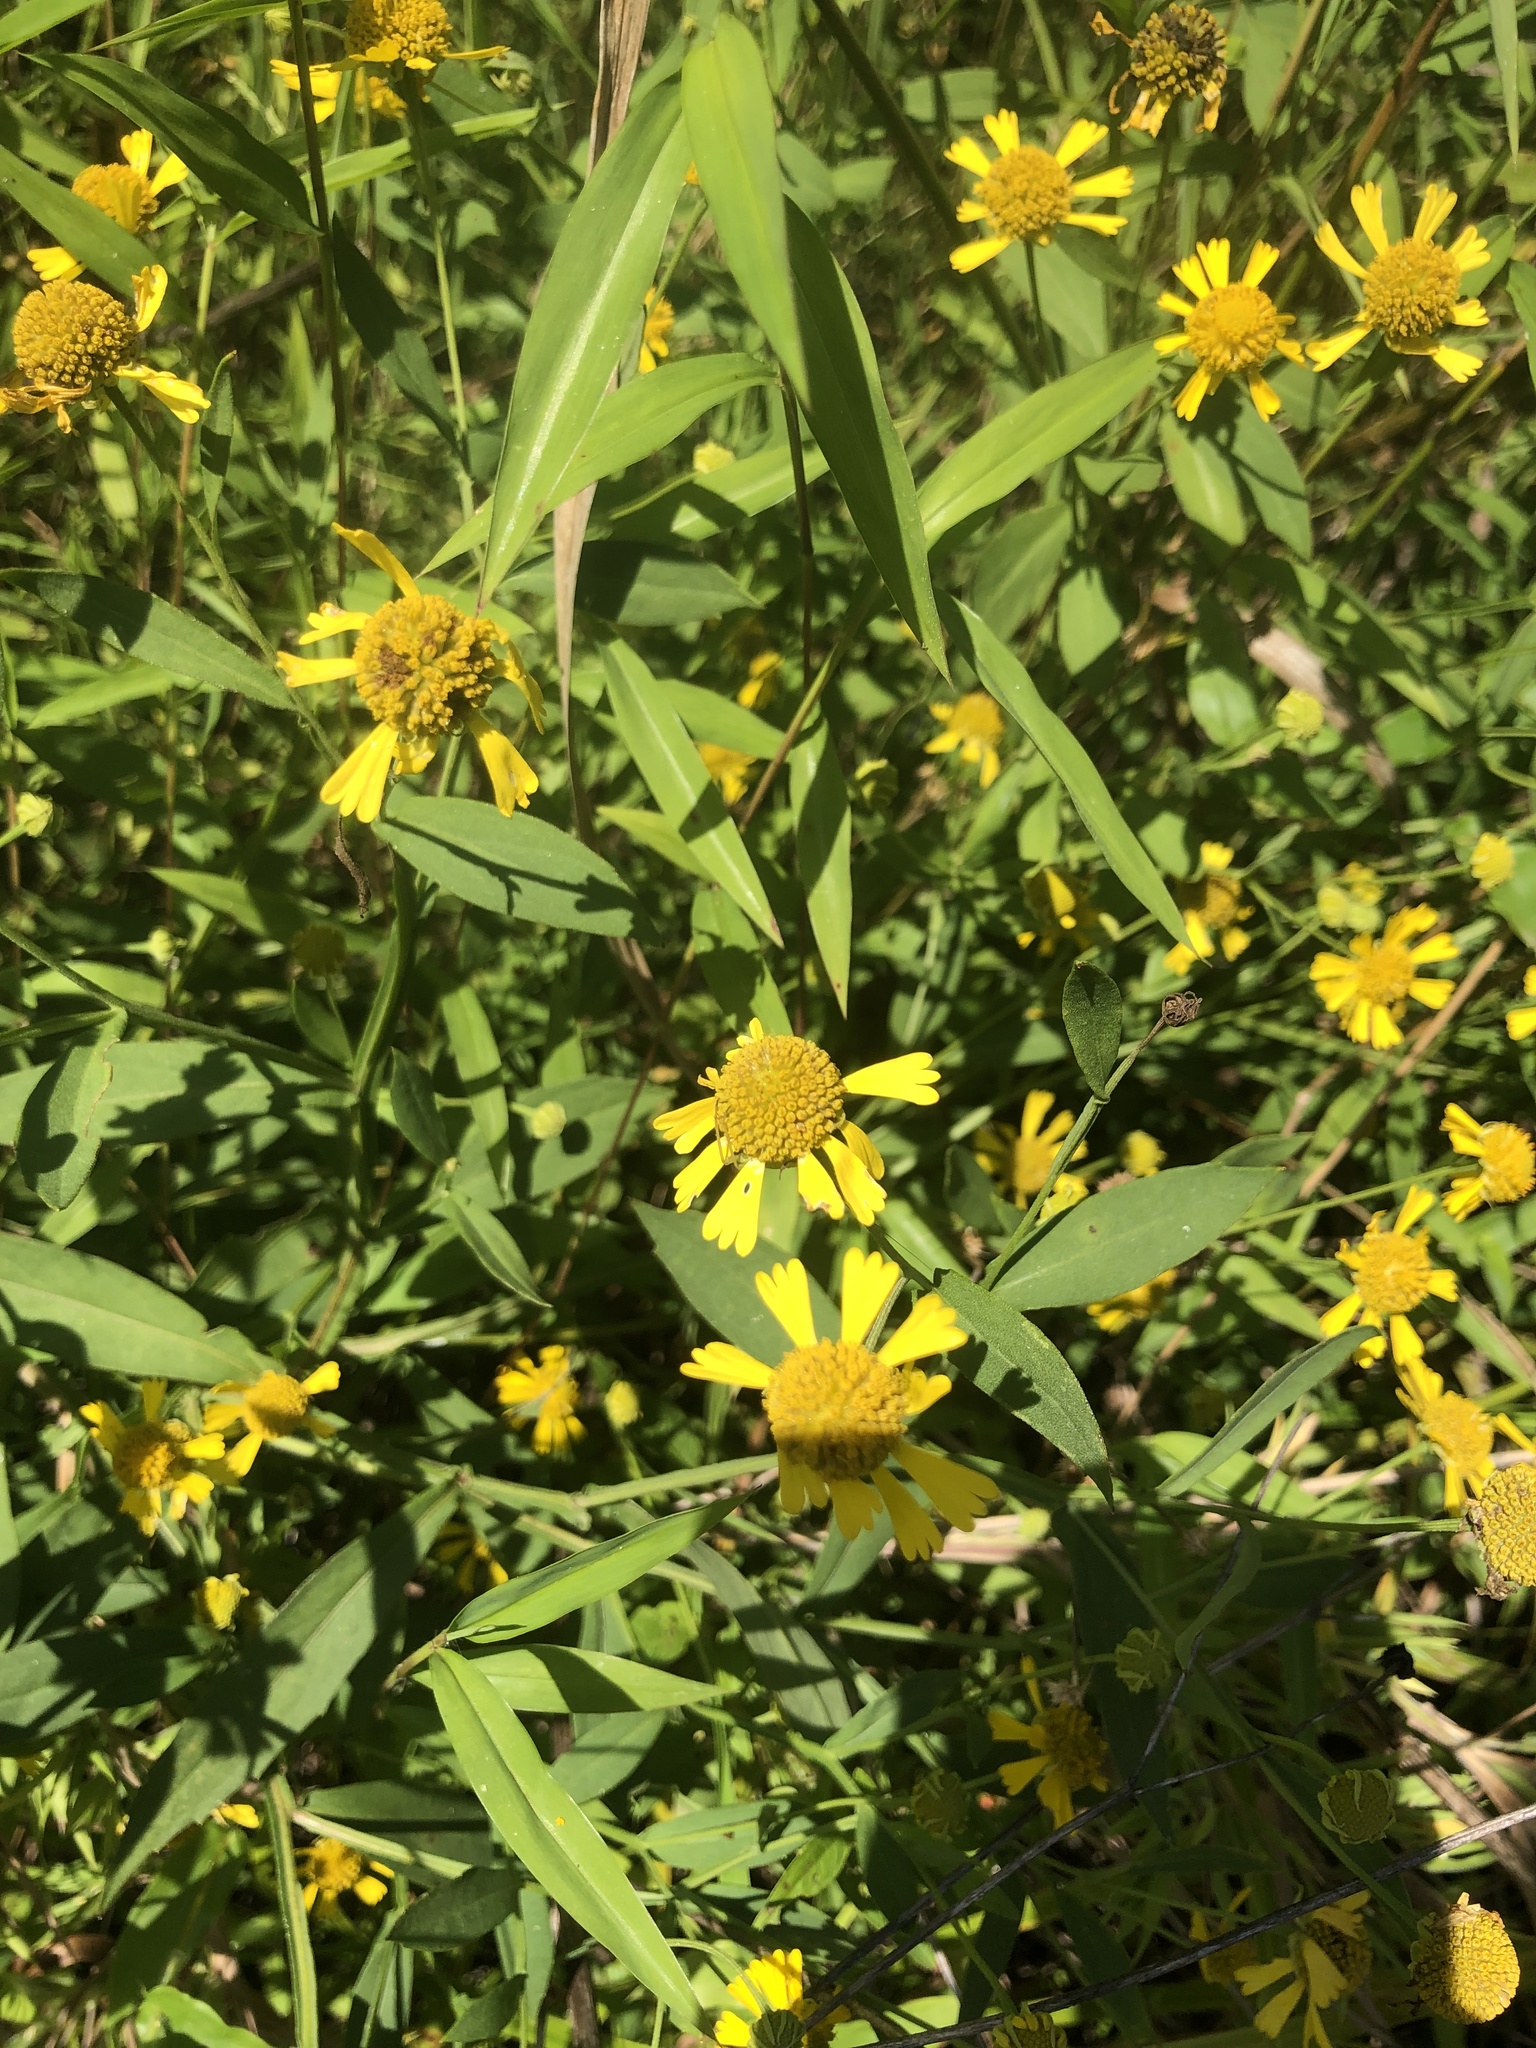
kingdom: Plantae
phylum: Tracheophyta
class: Magnoliopsida
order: Asterales
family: Asteraceae
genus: Helenium
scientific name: Helenium autumnale
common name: Sneezeweed
